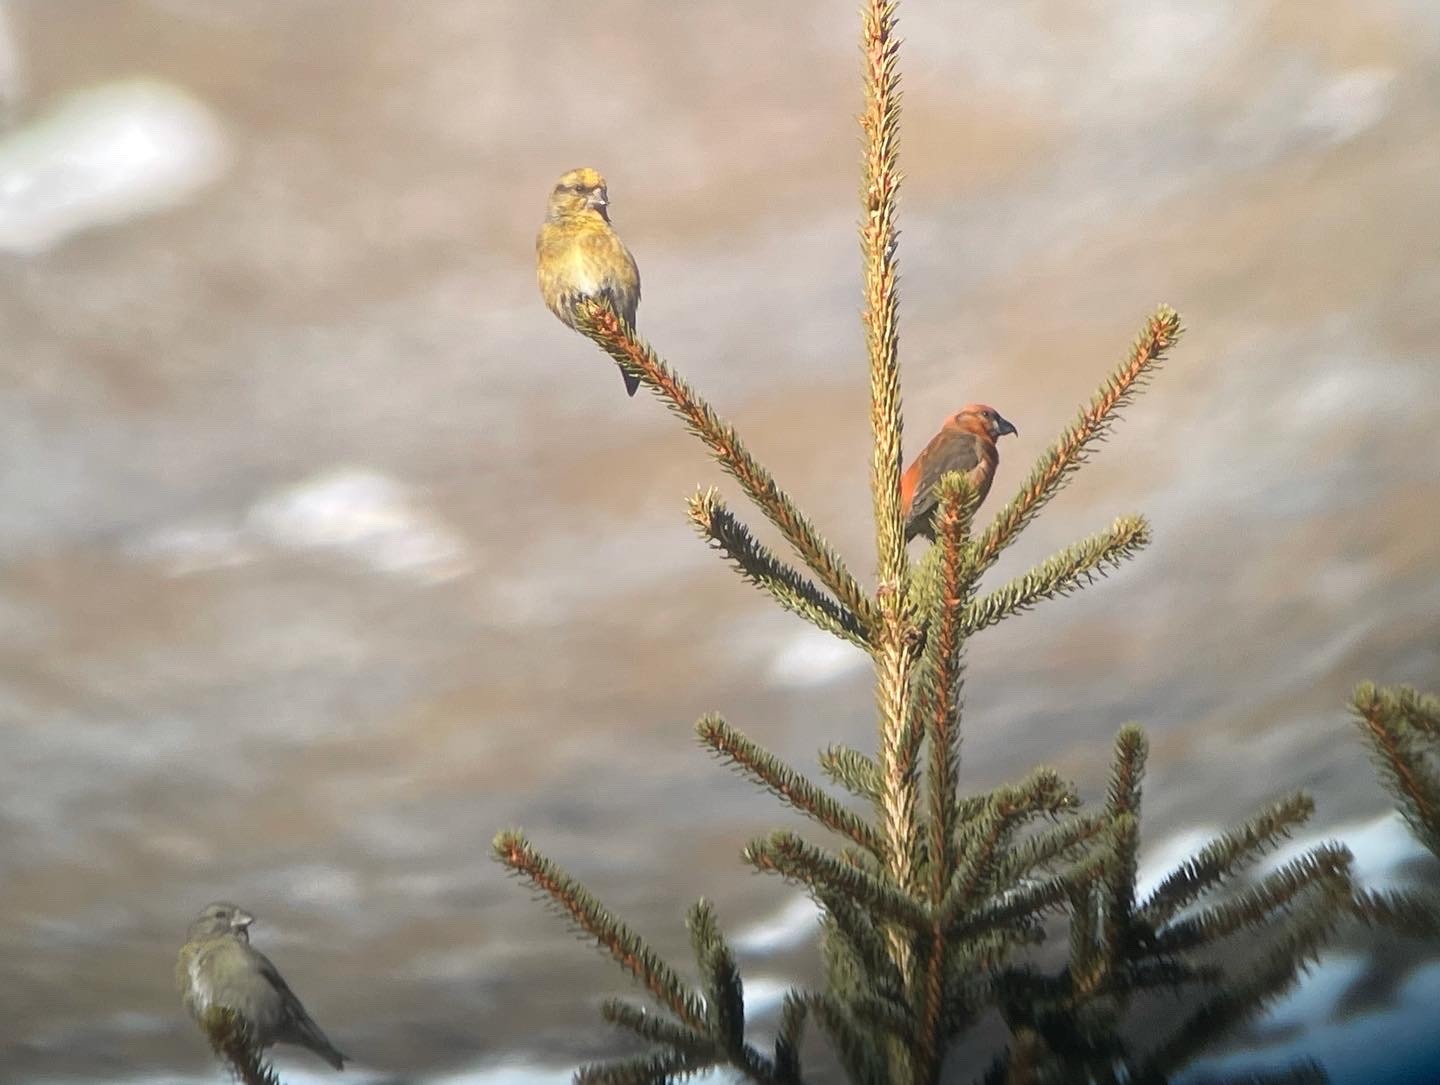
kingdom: Animalia
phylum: Chordata
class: Aves
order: Passeriformes
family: Fringillidae
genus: Loxia
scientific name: Loxia curvirostra
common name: Red crossbill
